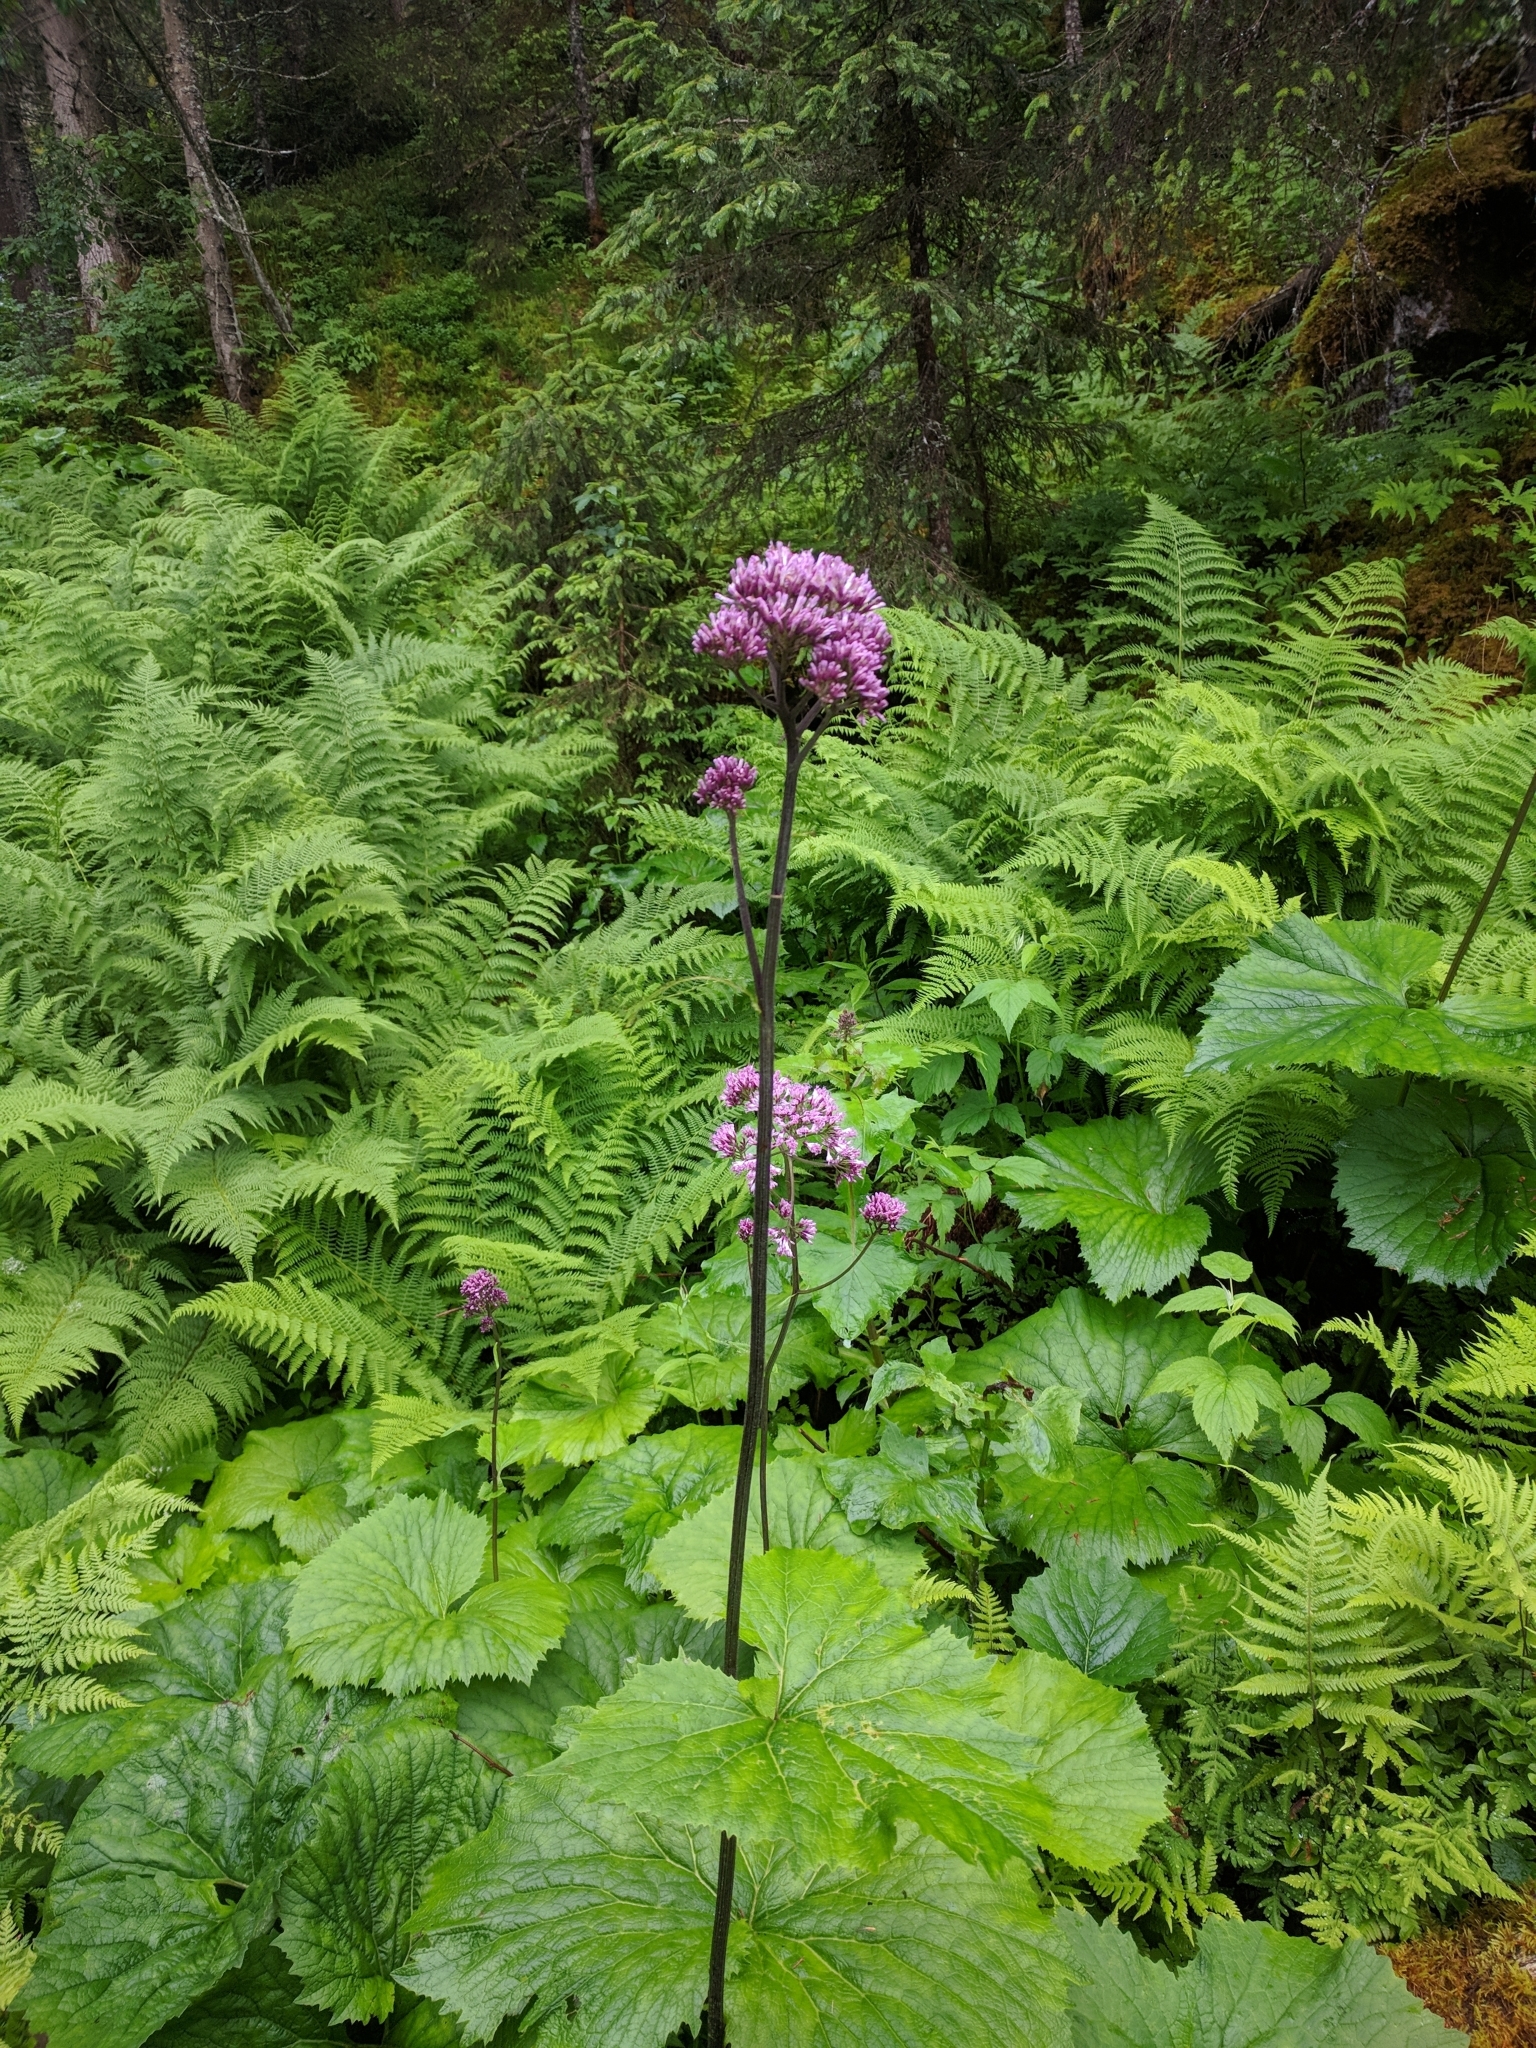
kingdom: Plantae
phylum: Tracheophyta
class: Magnoliopsida
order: Asterales
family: Asteraceae
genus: Adenostyles
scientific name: Adenostyles alliariae
